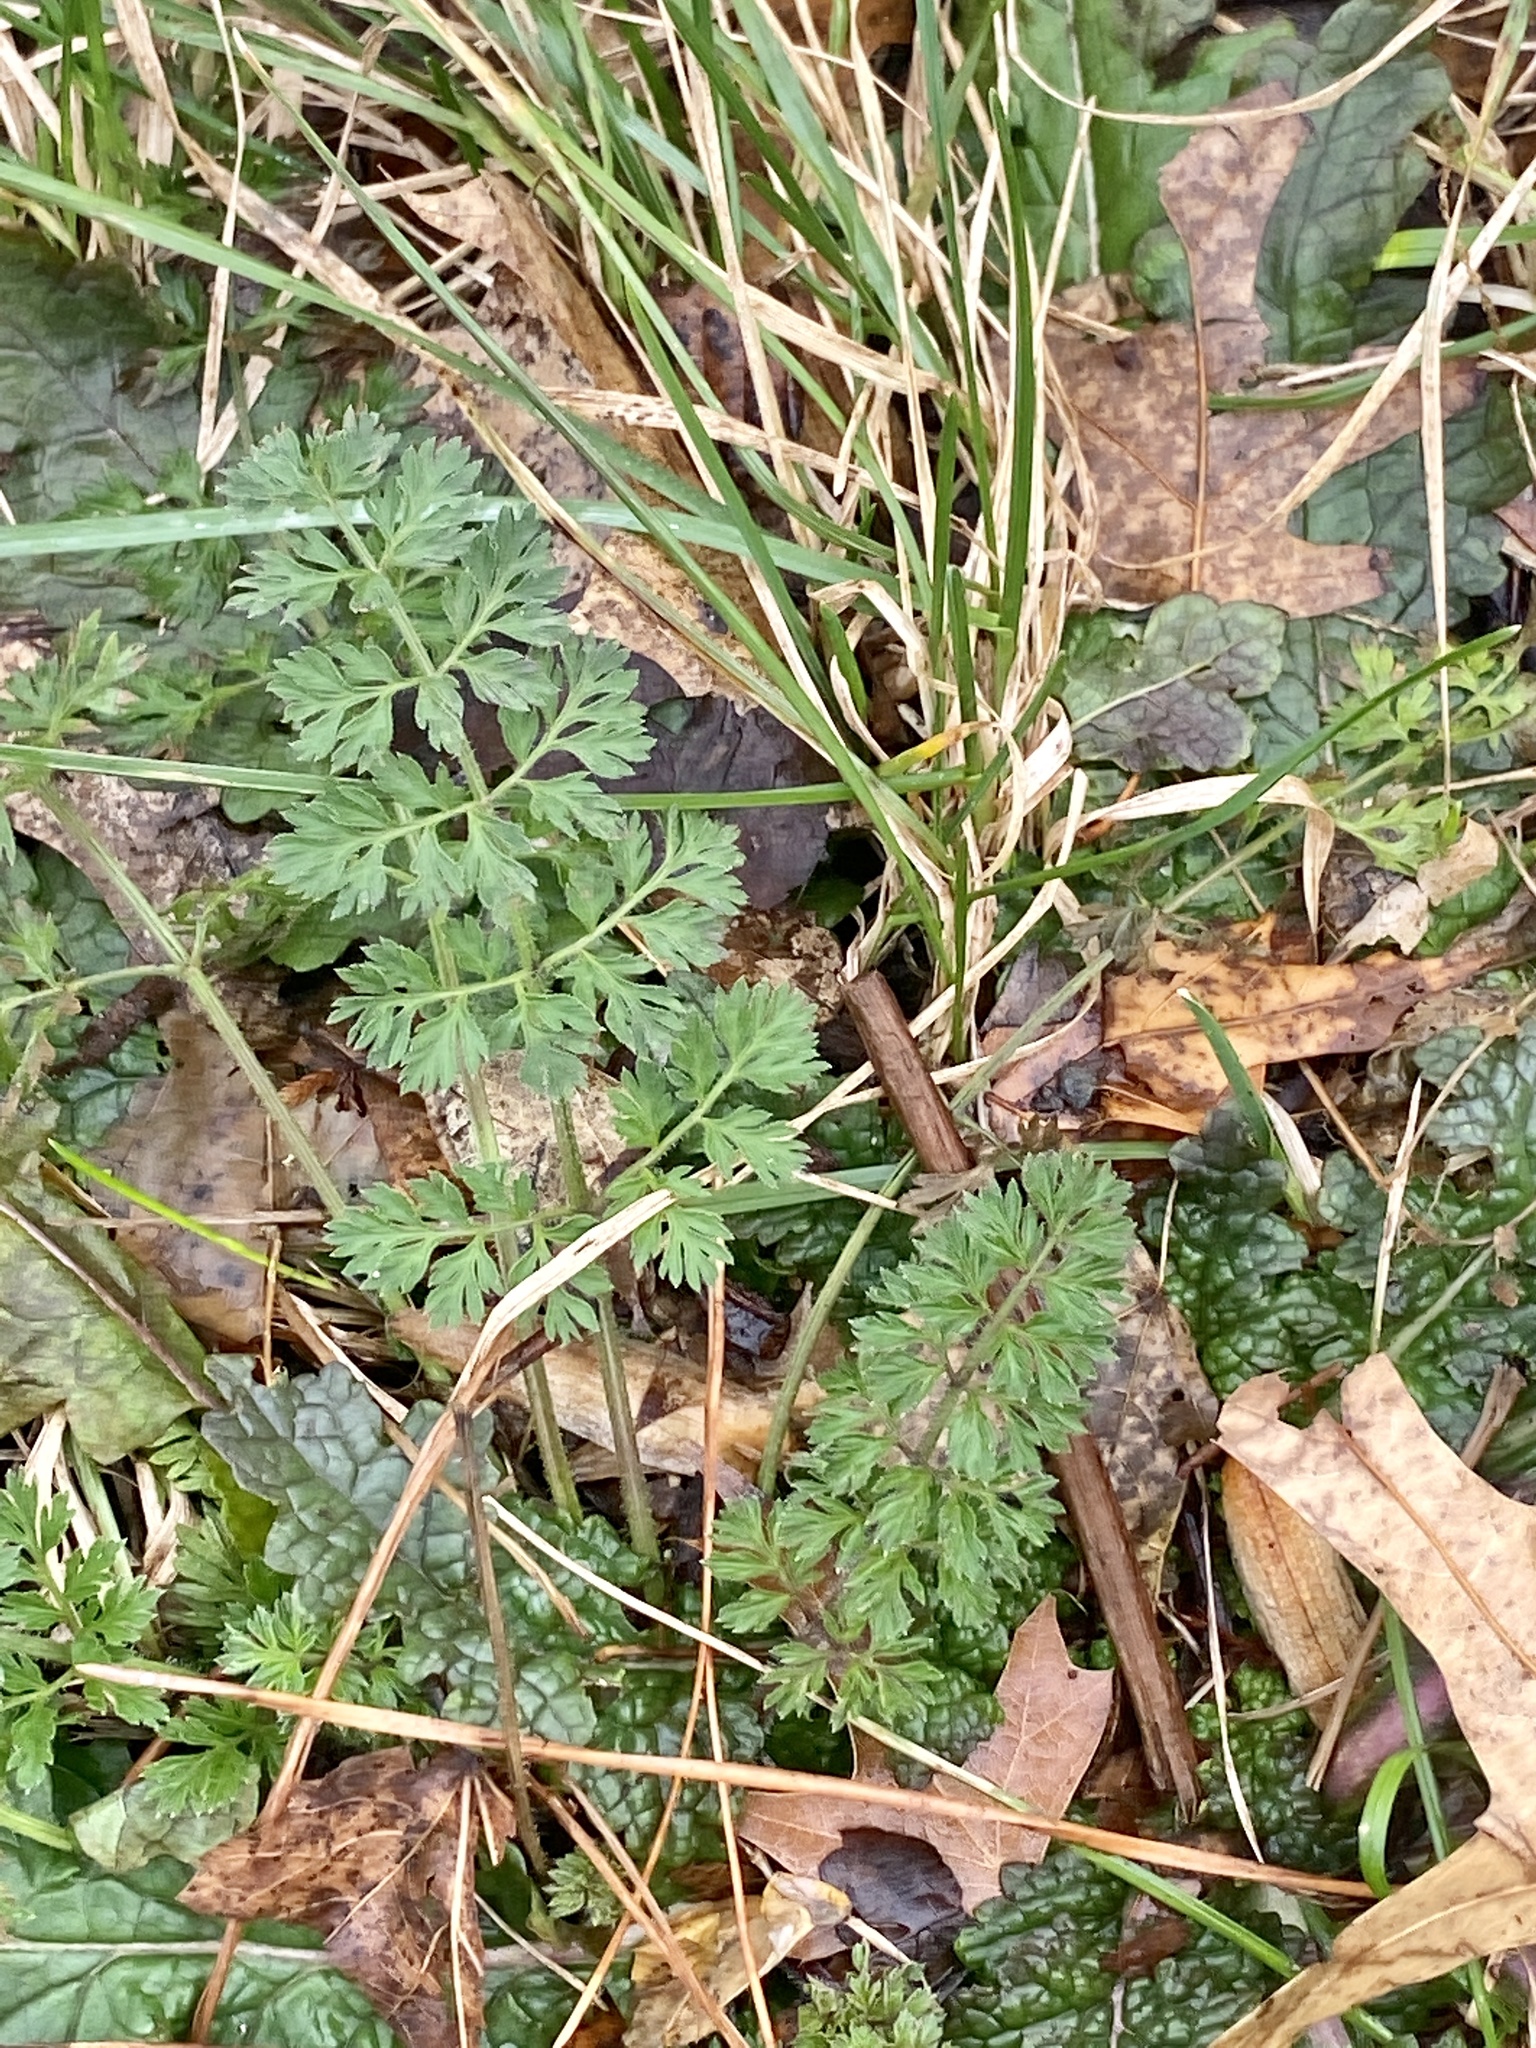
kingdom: Plantae
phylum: Tracheophyta
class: Magnoliopsida
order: Apiales
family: Apiaceae
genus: Daucus
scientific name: Daucus carota
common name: Wild carrot
